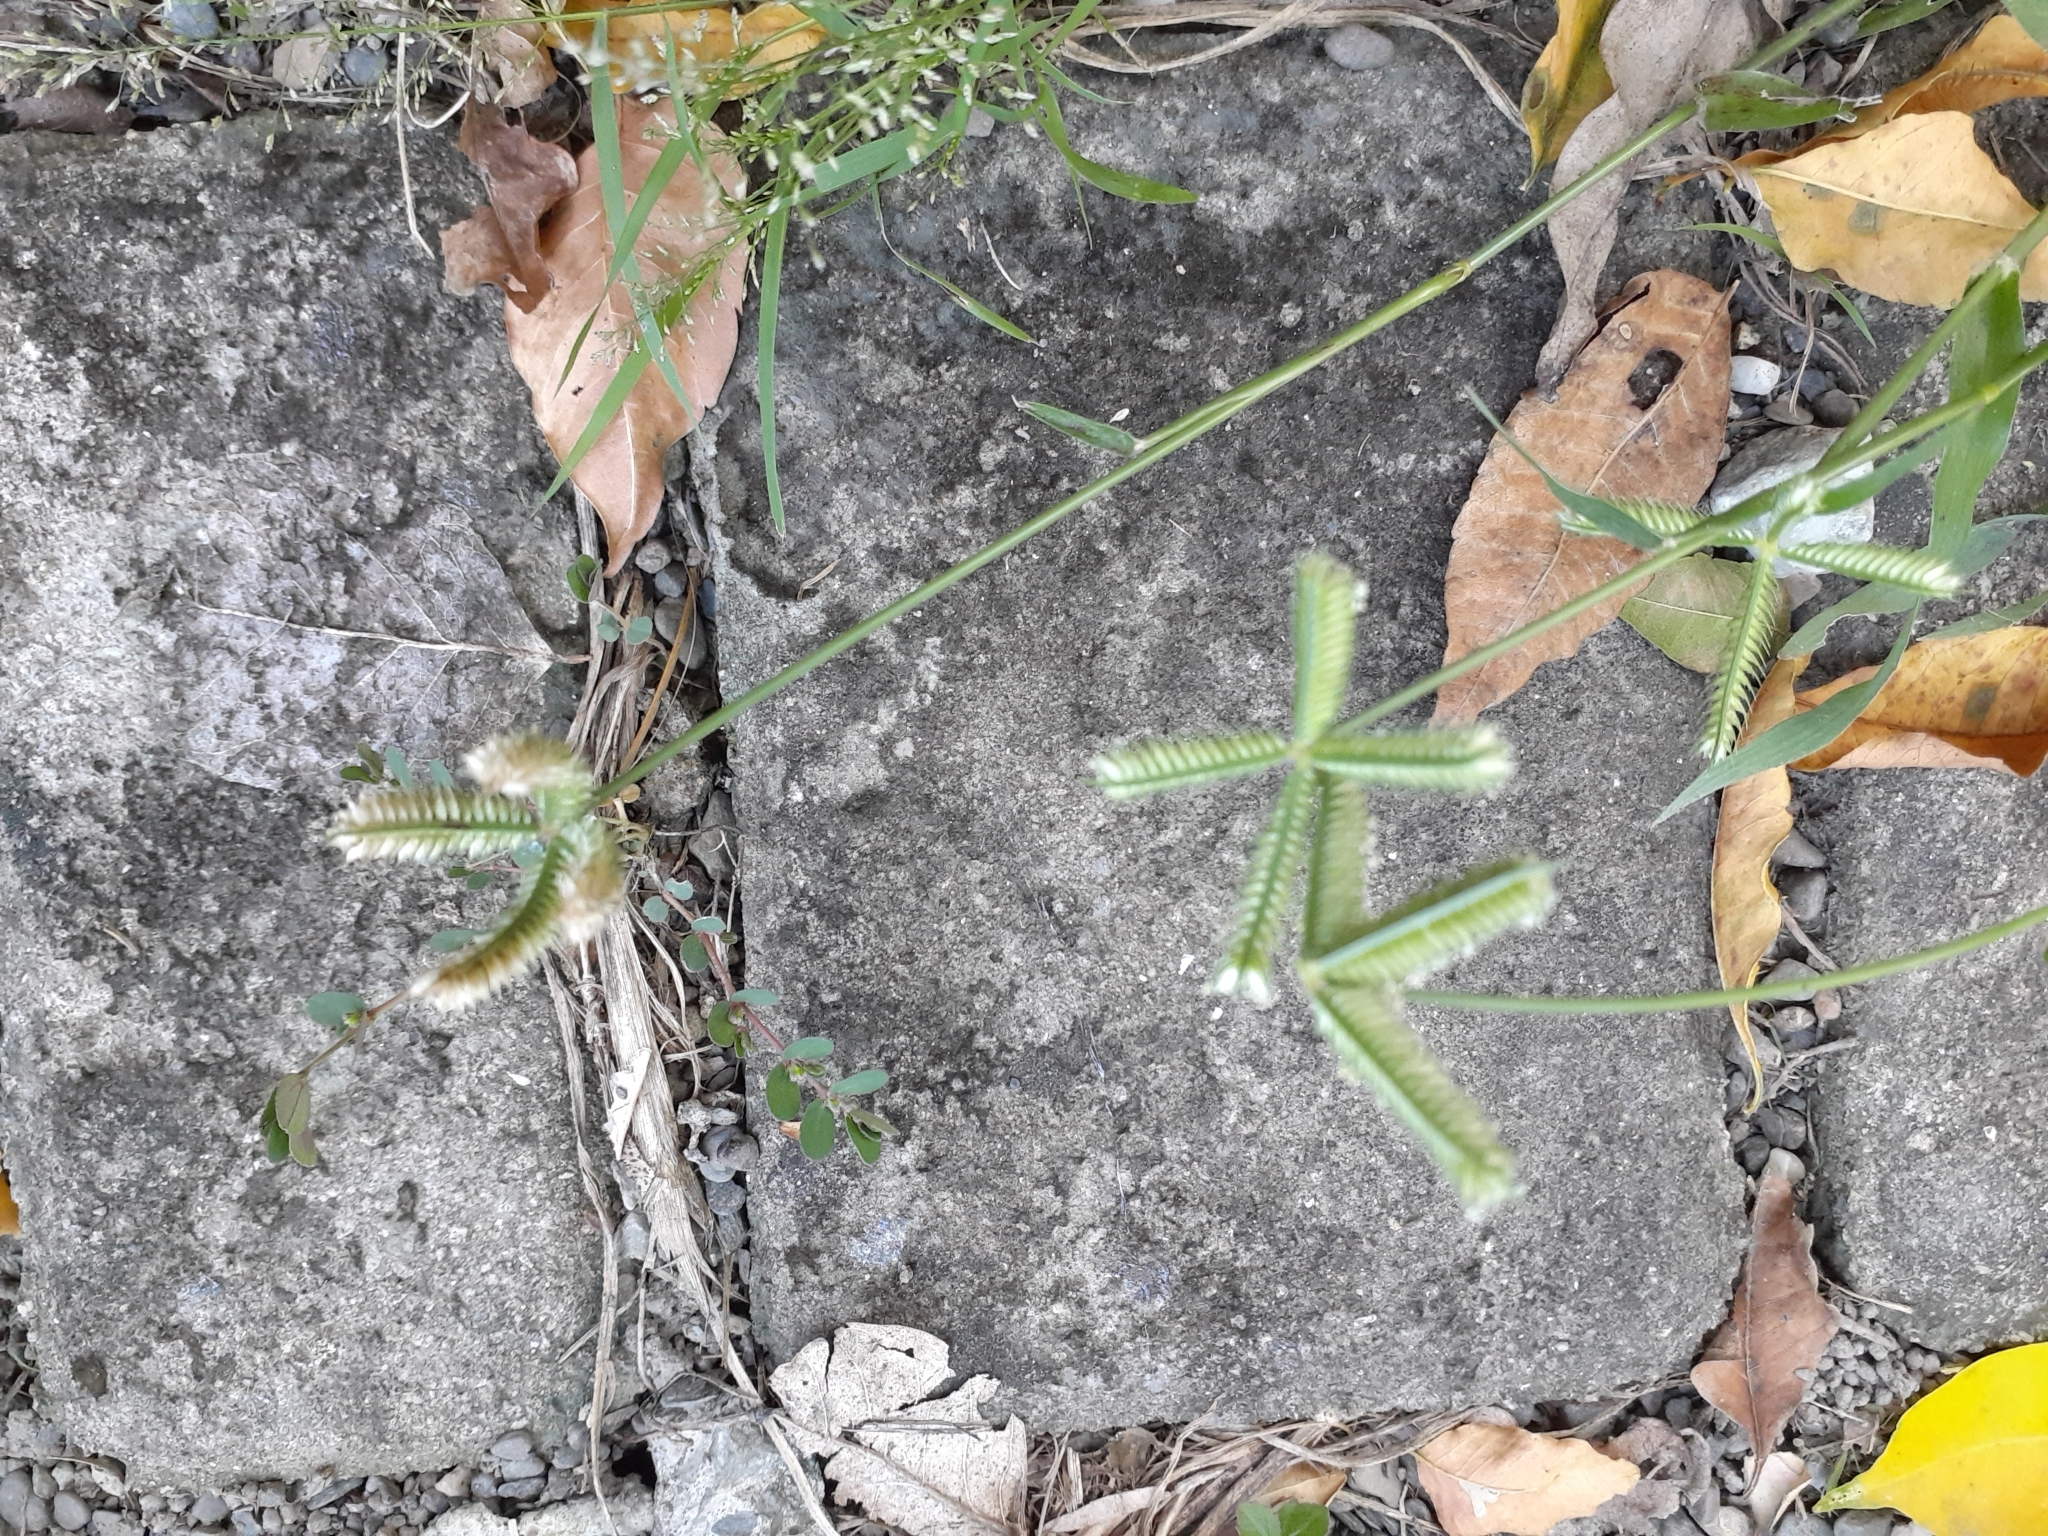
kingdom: Plantae
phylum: Tracheophyta
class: Liliopsida
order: Poales
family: Poaceae
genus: Dactyloctenium
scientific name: Dactyloctenium aegyptium
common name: Egyptian grass
